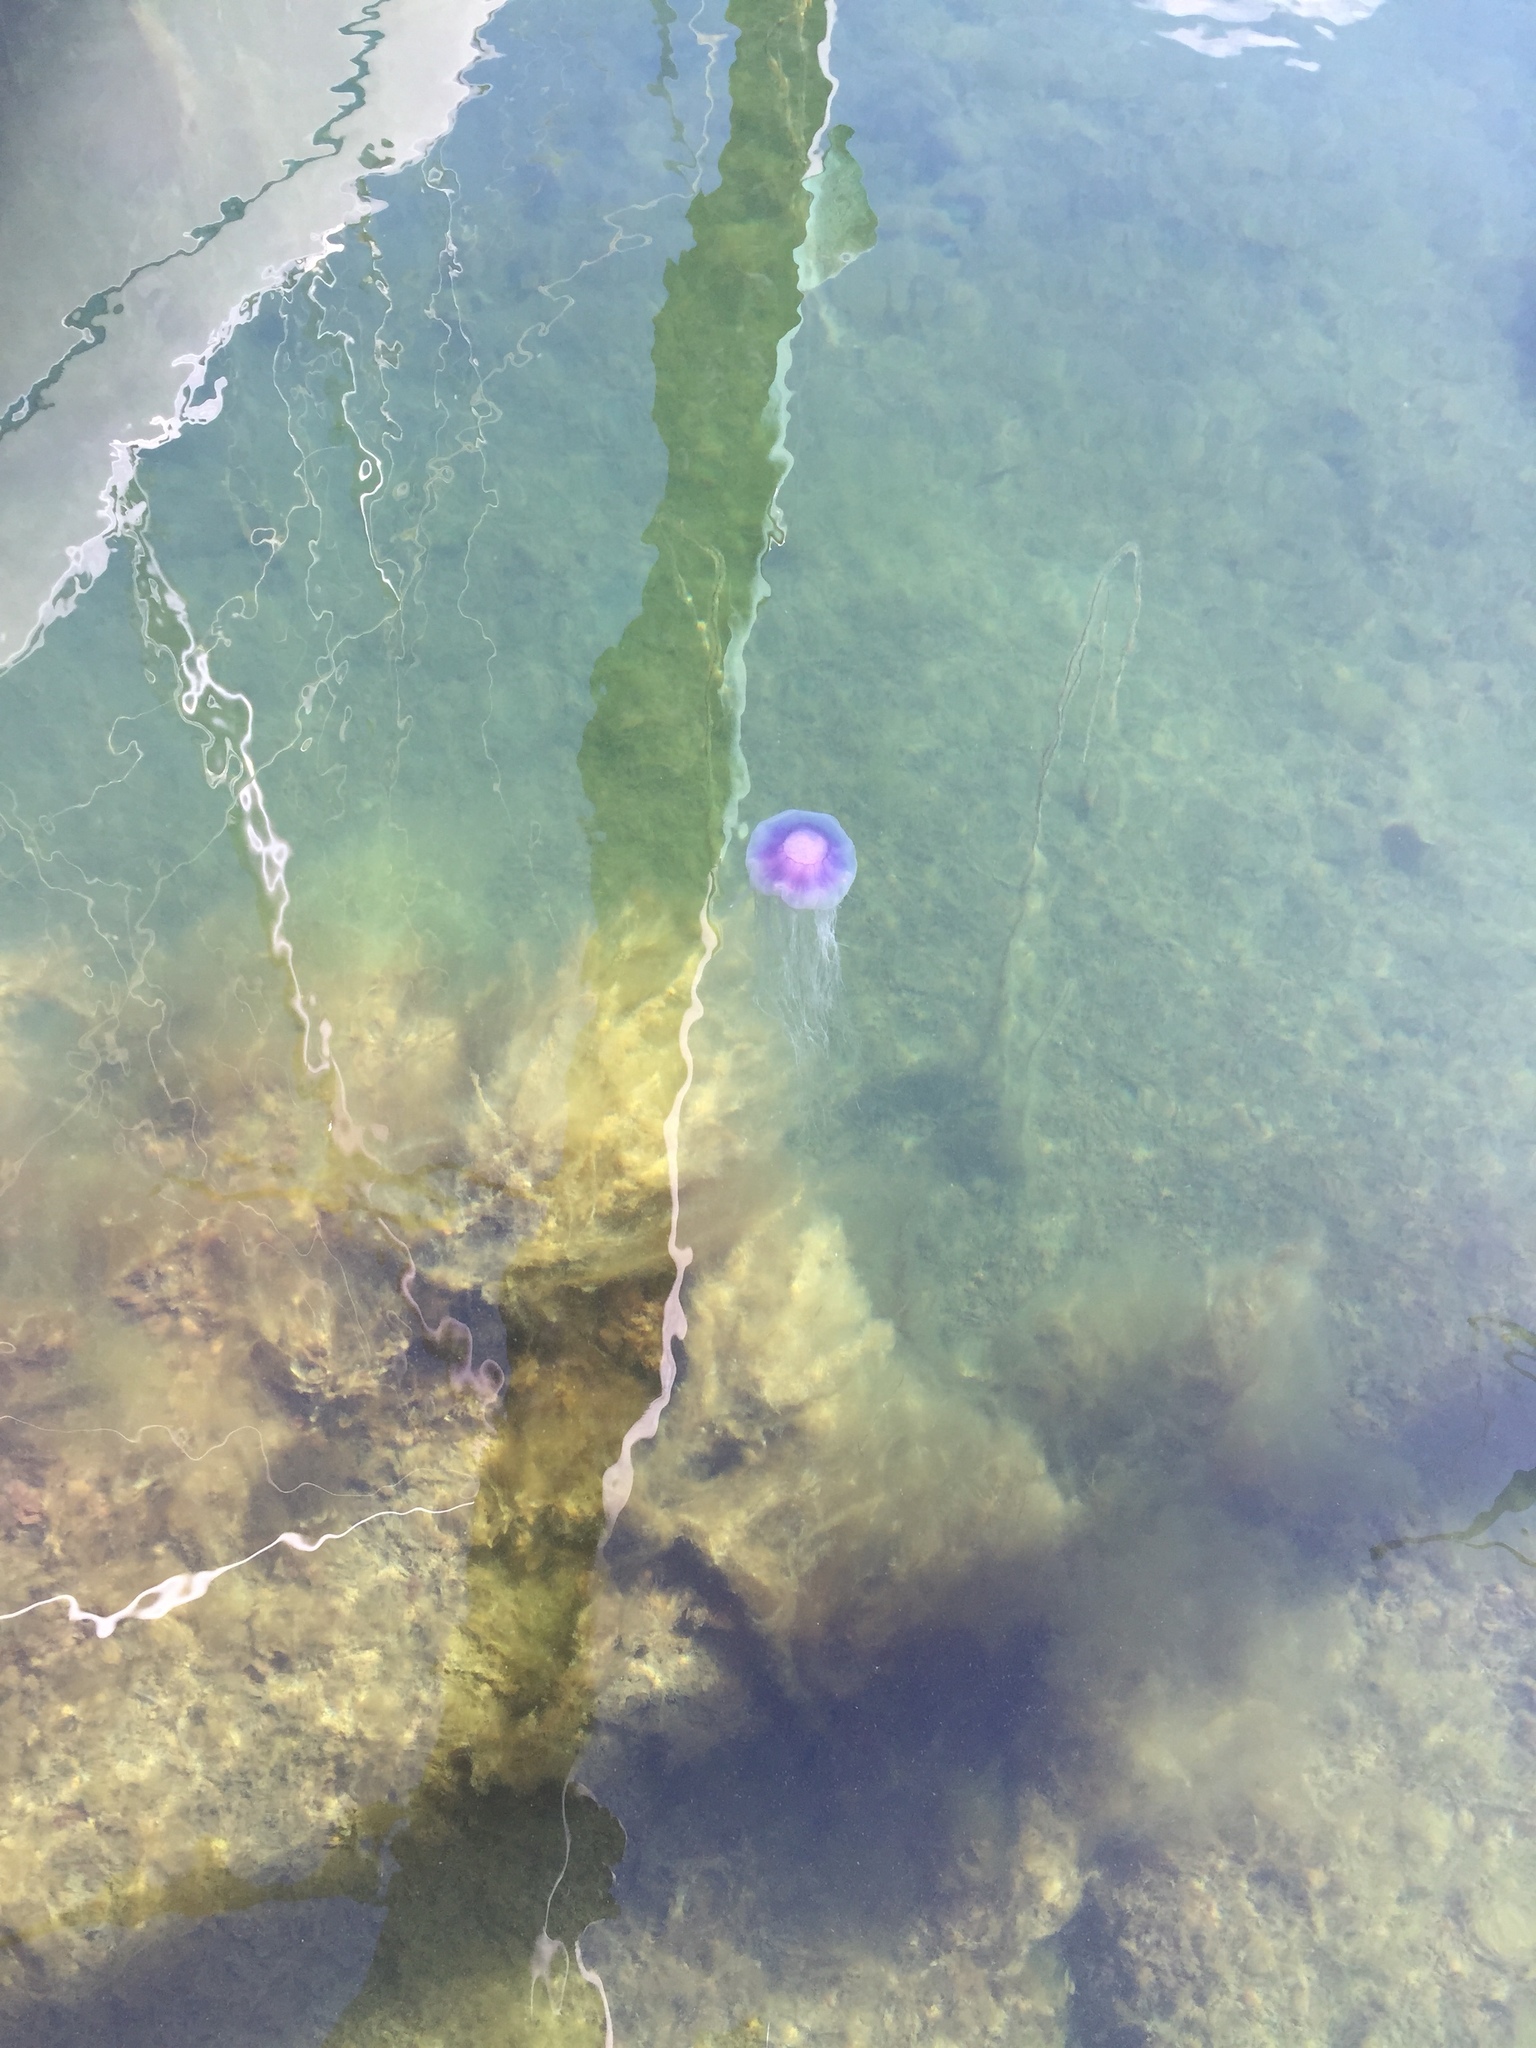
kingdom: Animalia
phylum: Cnidaria
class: Scyphozoa
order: Semaeostomeae
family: Cyaneidae
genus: Cyanea
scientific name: Cyanea lamarckii
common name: Blue jellyfish
